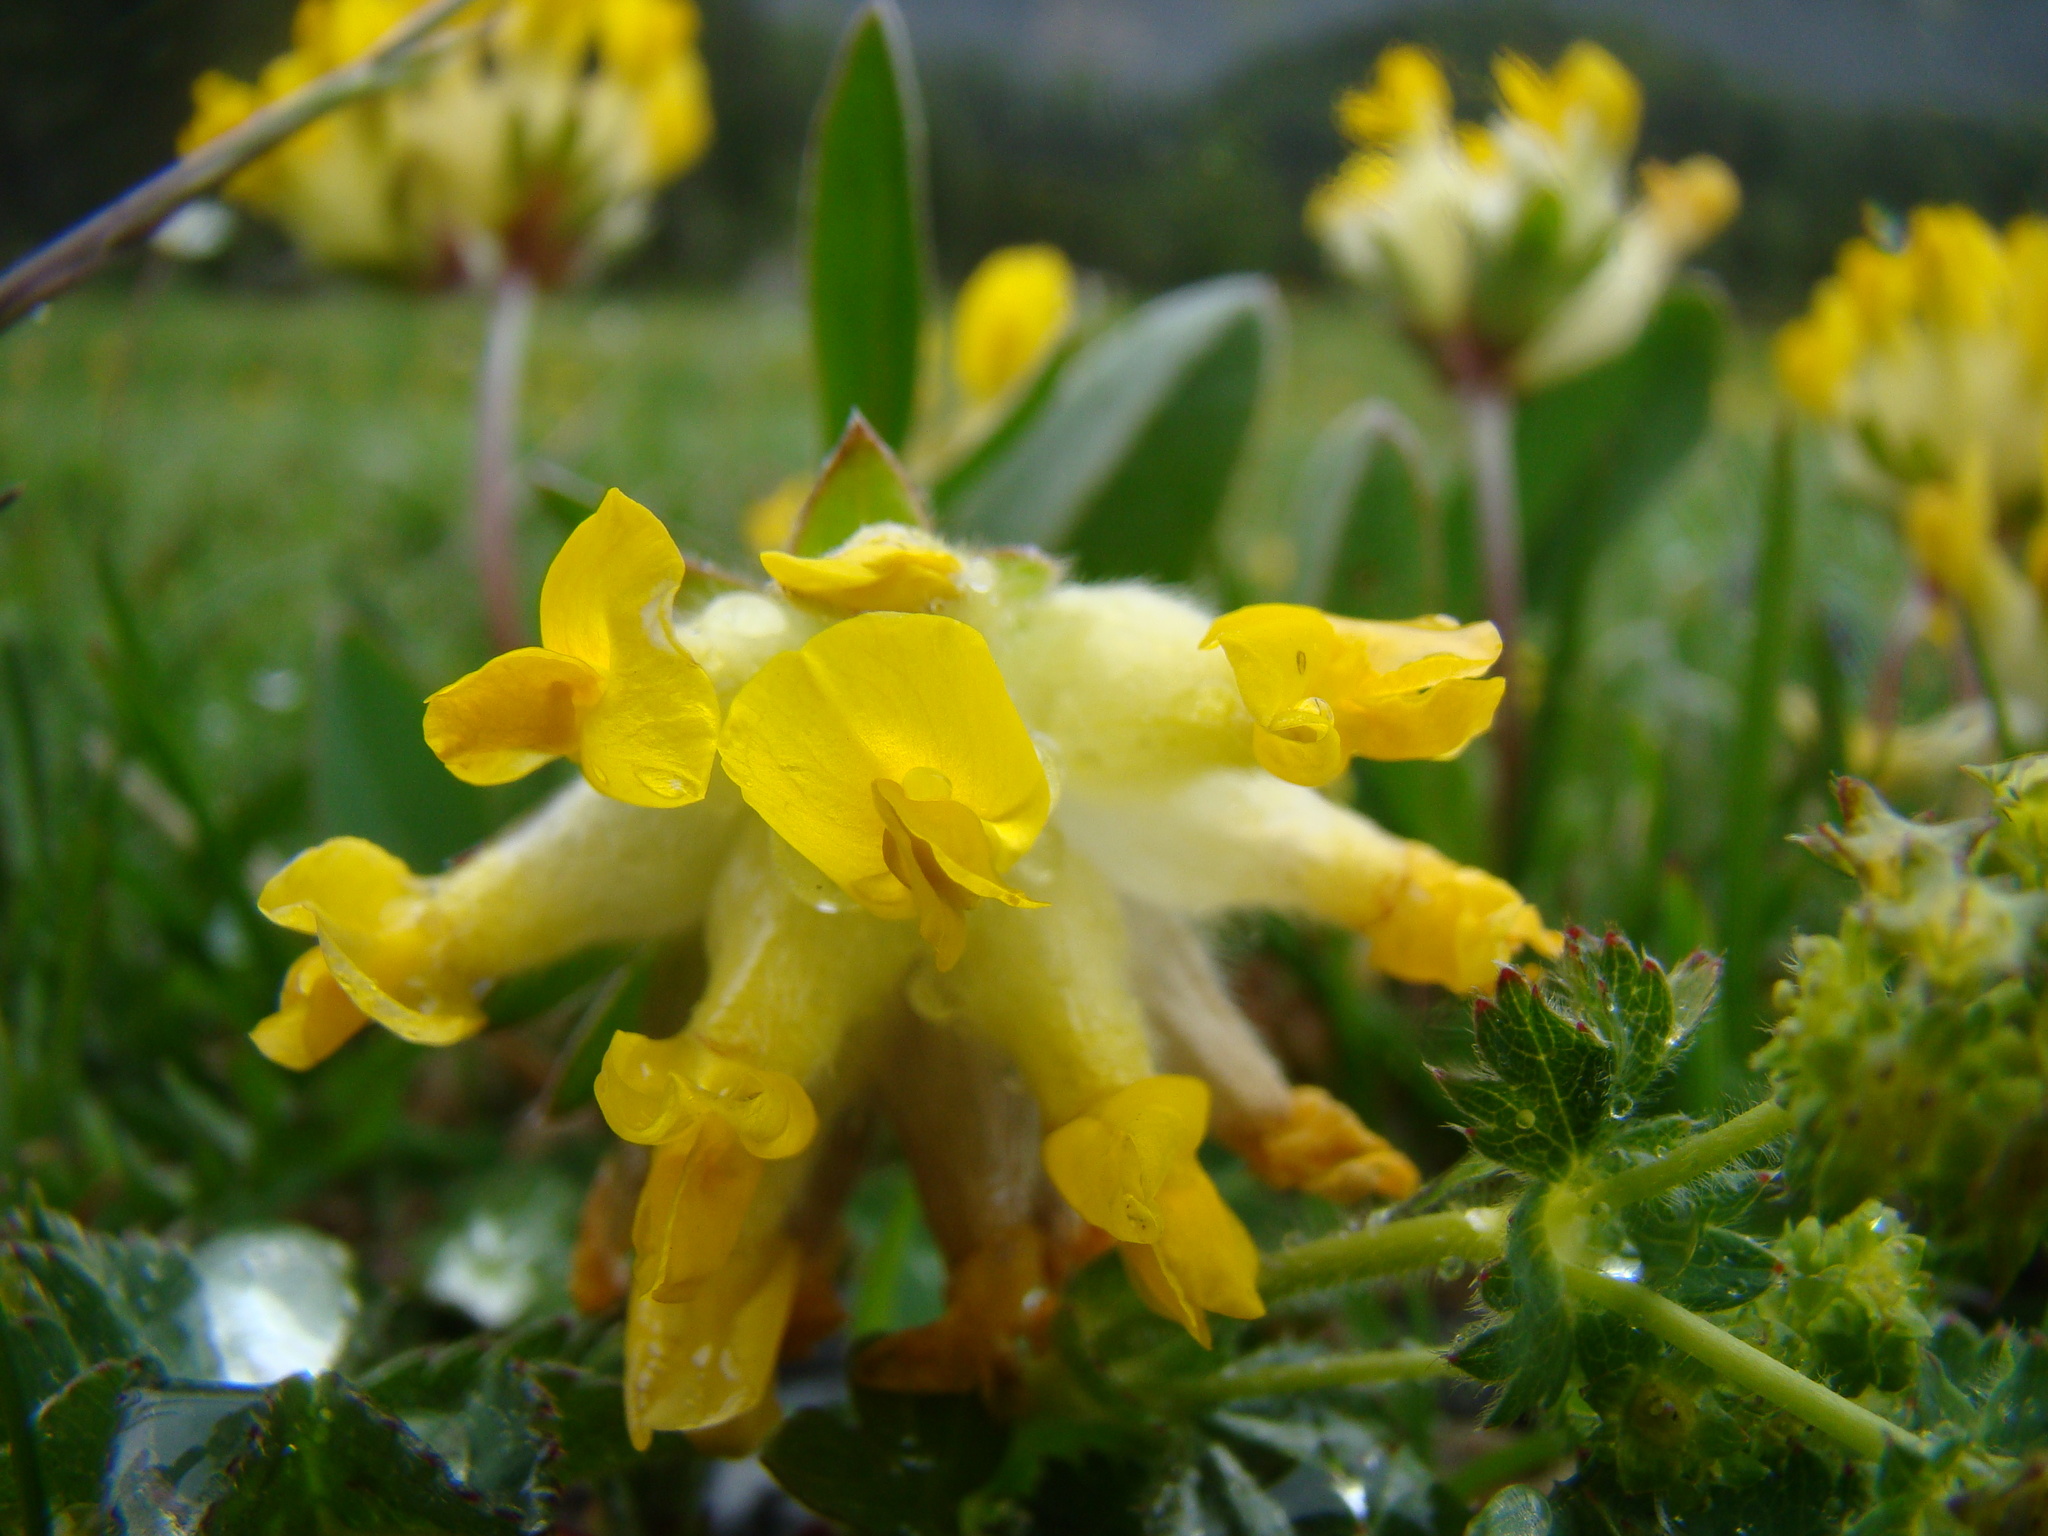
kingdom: Plantae
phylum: Tracheophyta
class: Magnoliopsida
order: Fabales
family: Fabaceae
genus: Anthyllis
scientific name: Anthyllis vulneraria
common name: Kidney vetch
